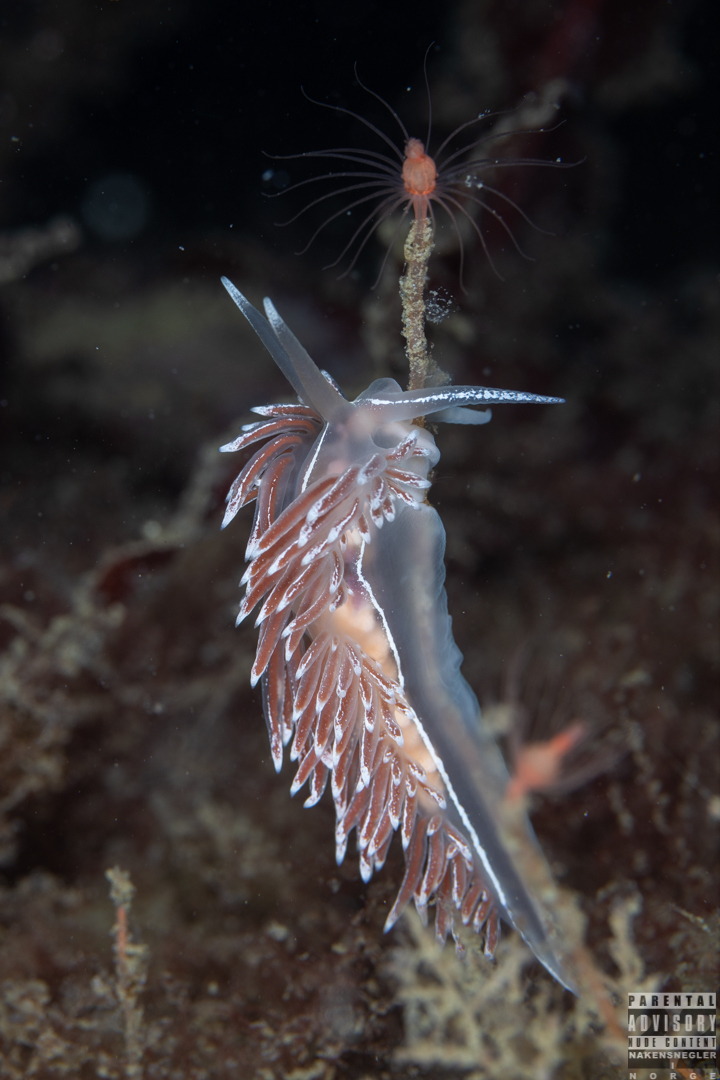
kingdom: Animalia
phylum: Mollusca
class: Gastropoda
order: Nudibranchia
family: Coryphellidae
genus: Coryphella
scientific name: Coryphella lineata
